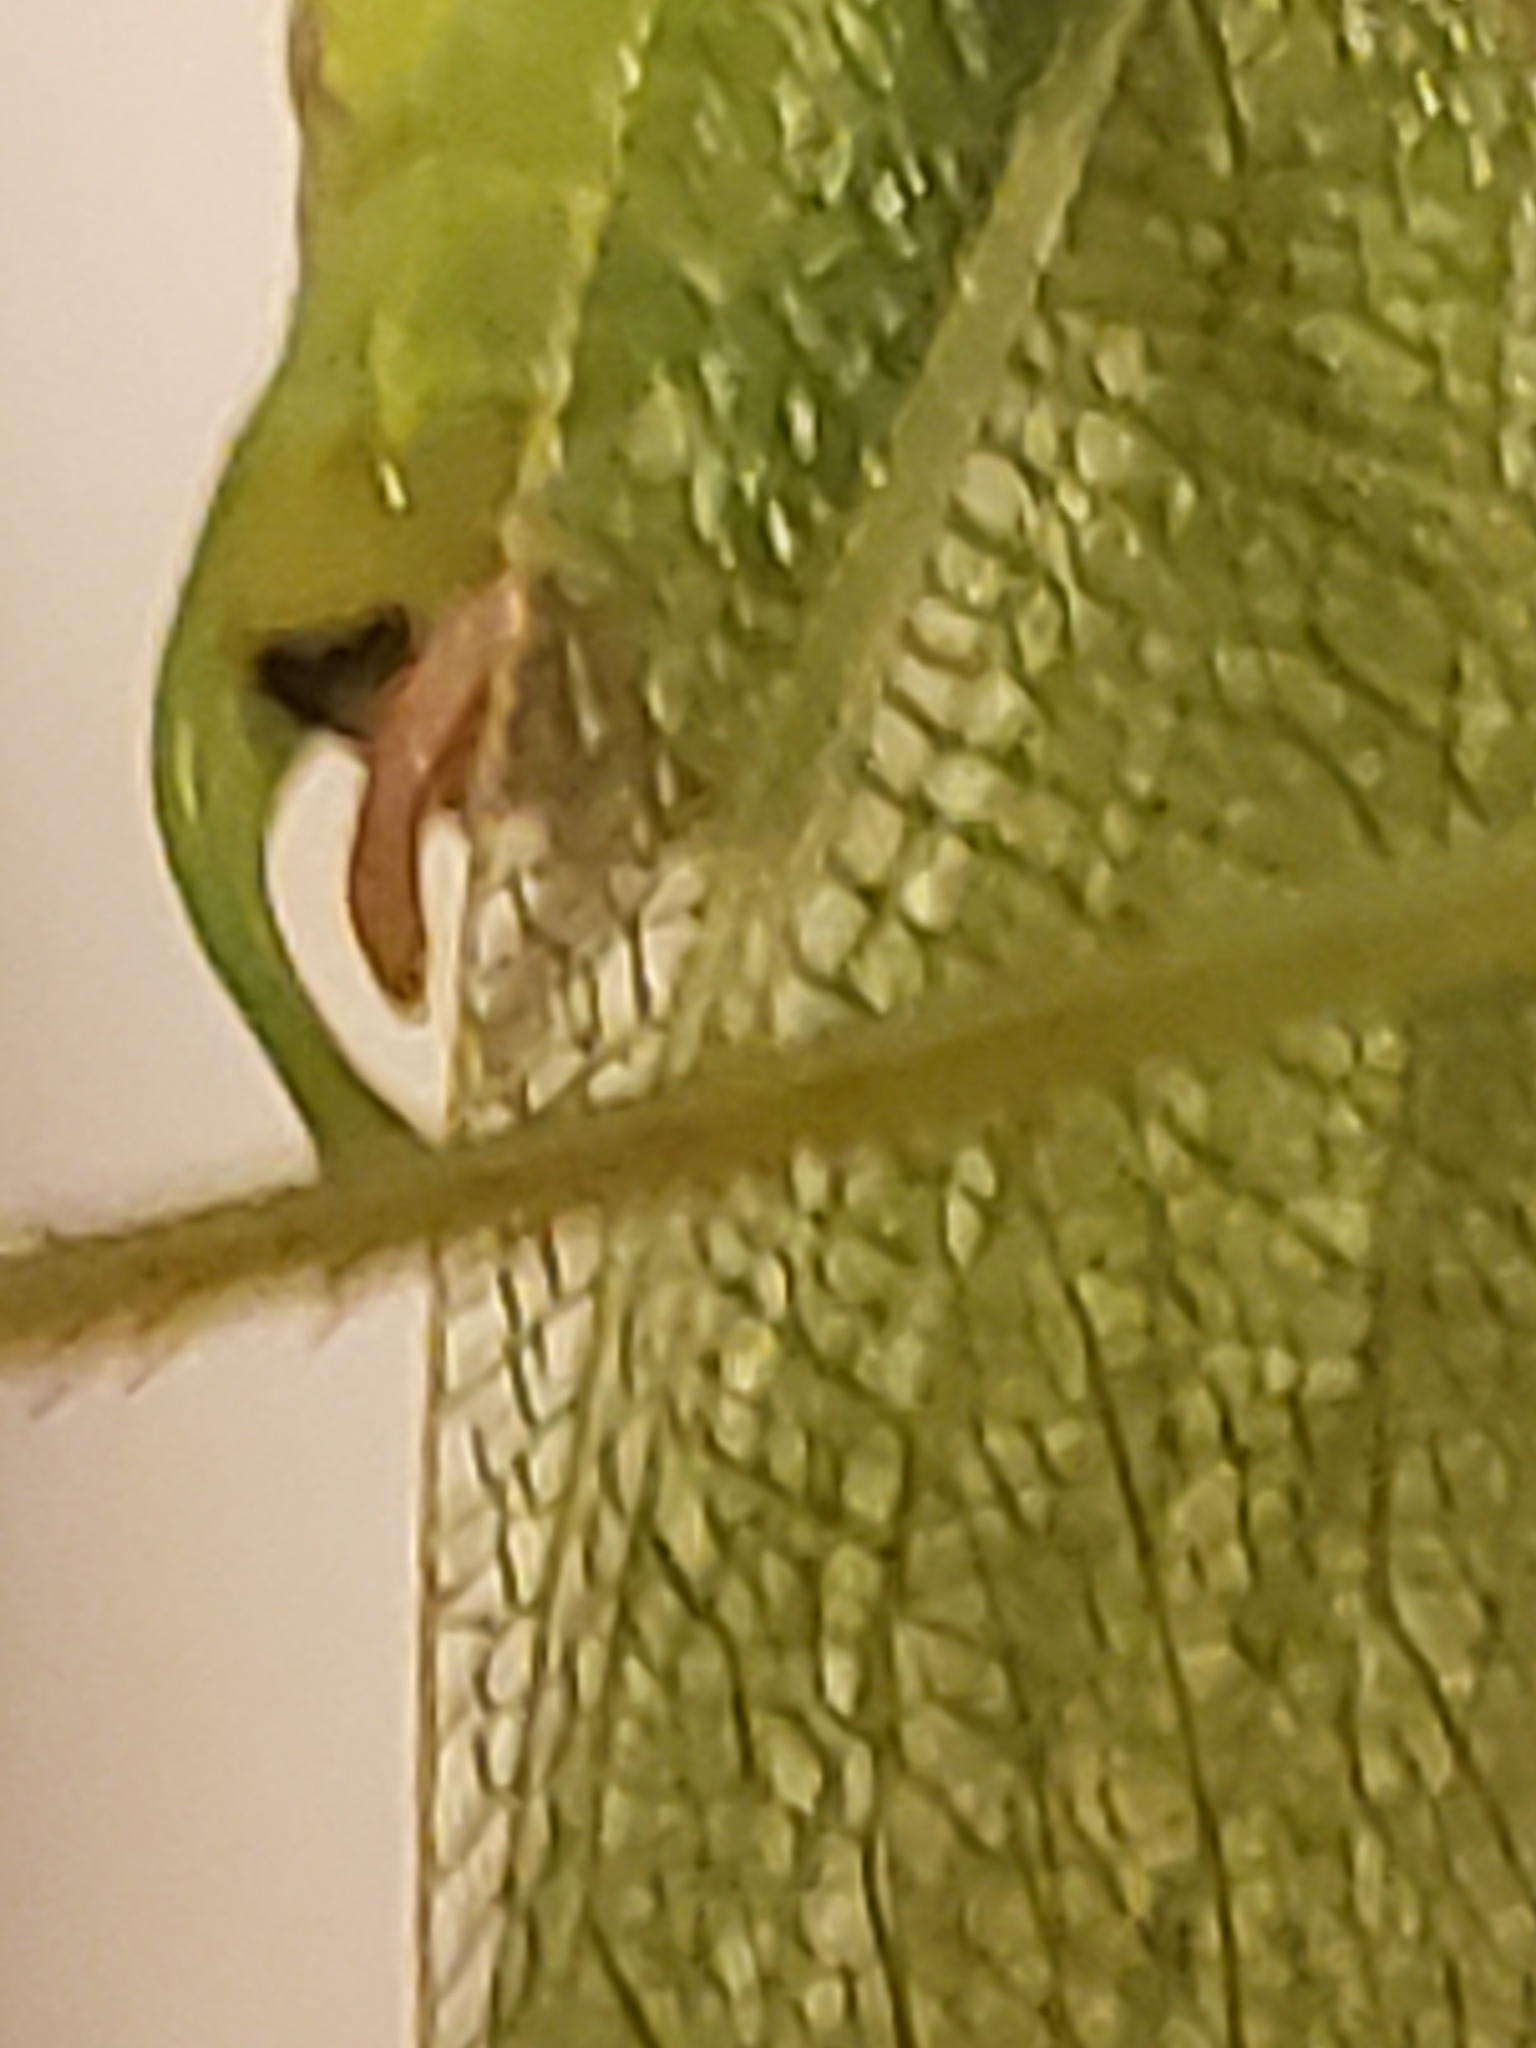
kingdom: Animalia
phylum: Arthropoda
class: Insecta
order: Orthoptera
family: Tettigoniidae
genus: Scudderia
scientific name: Scudderia septentrionalis
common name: Northern bush-katydid
